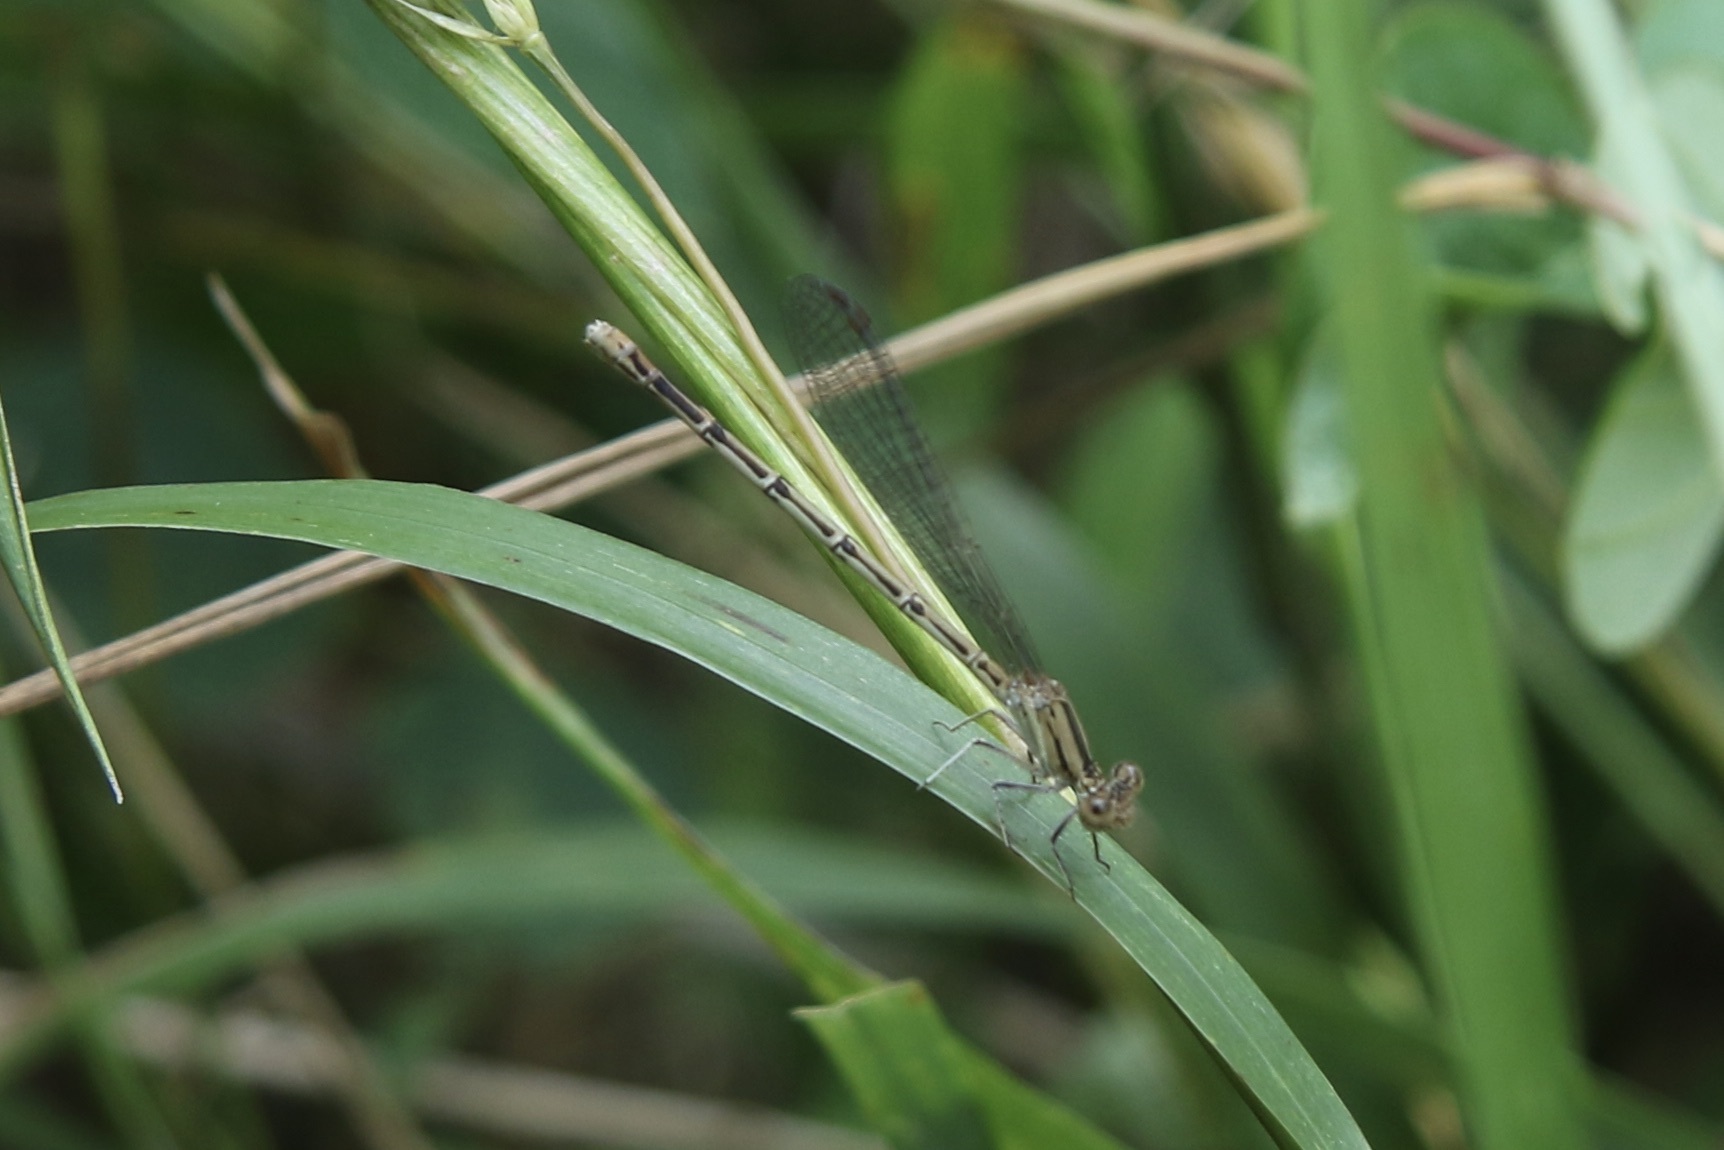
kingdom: Animalia
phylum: Arthropoda
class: Insecta
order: Odonata
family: Coenagrionidae
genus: Argia
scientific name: Argia fumipennis
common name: Variable dancer
